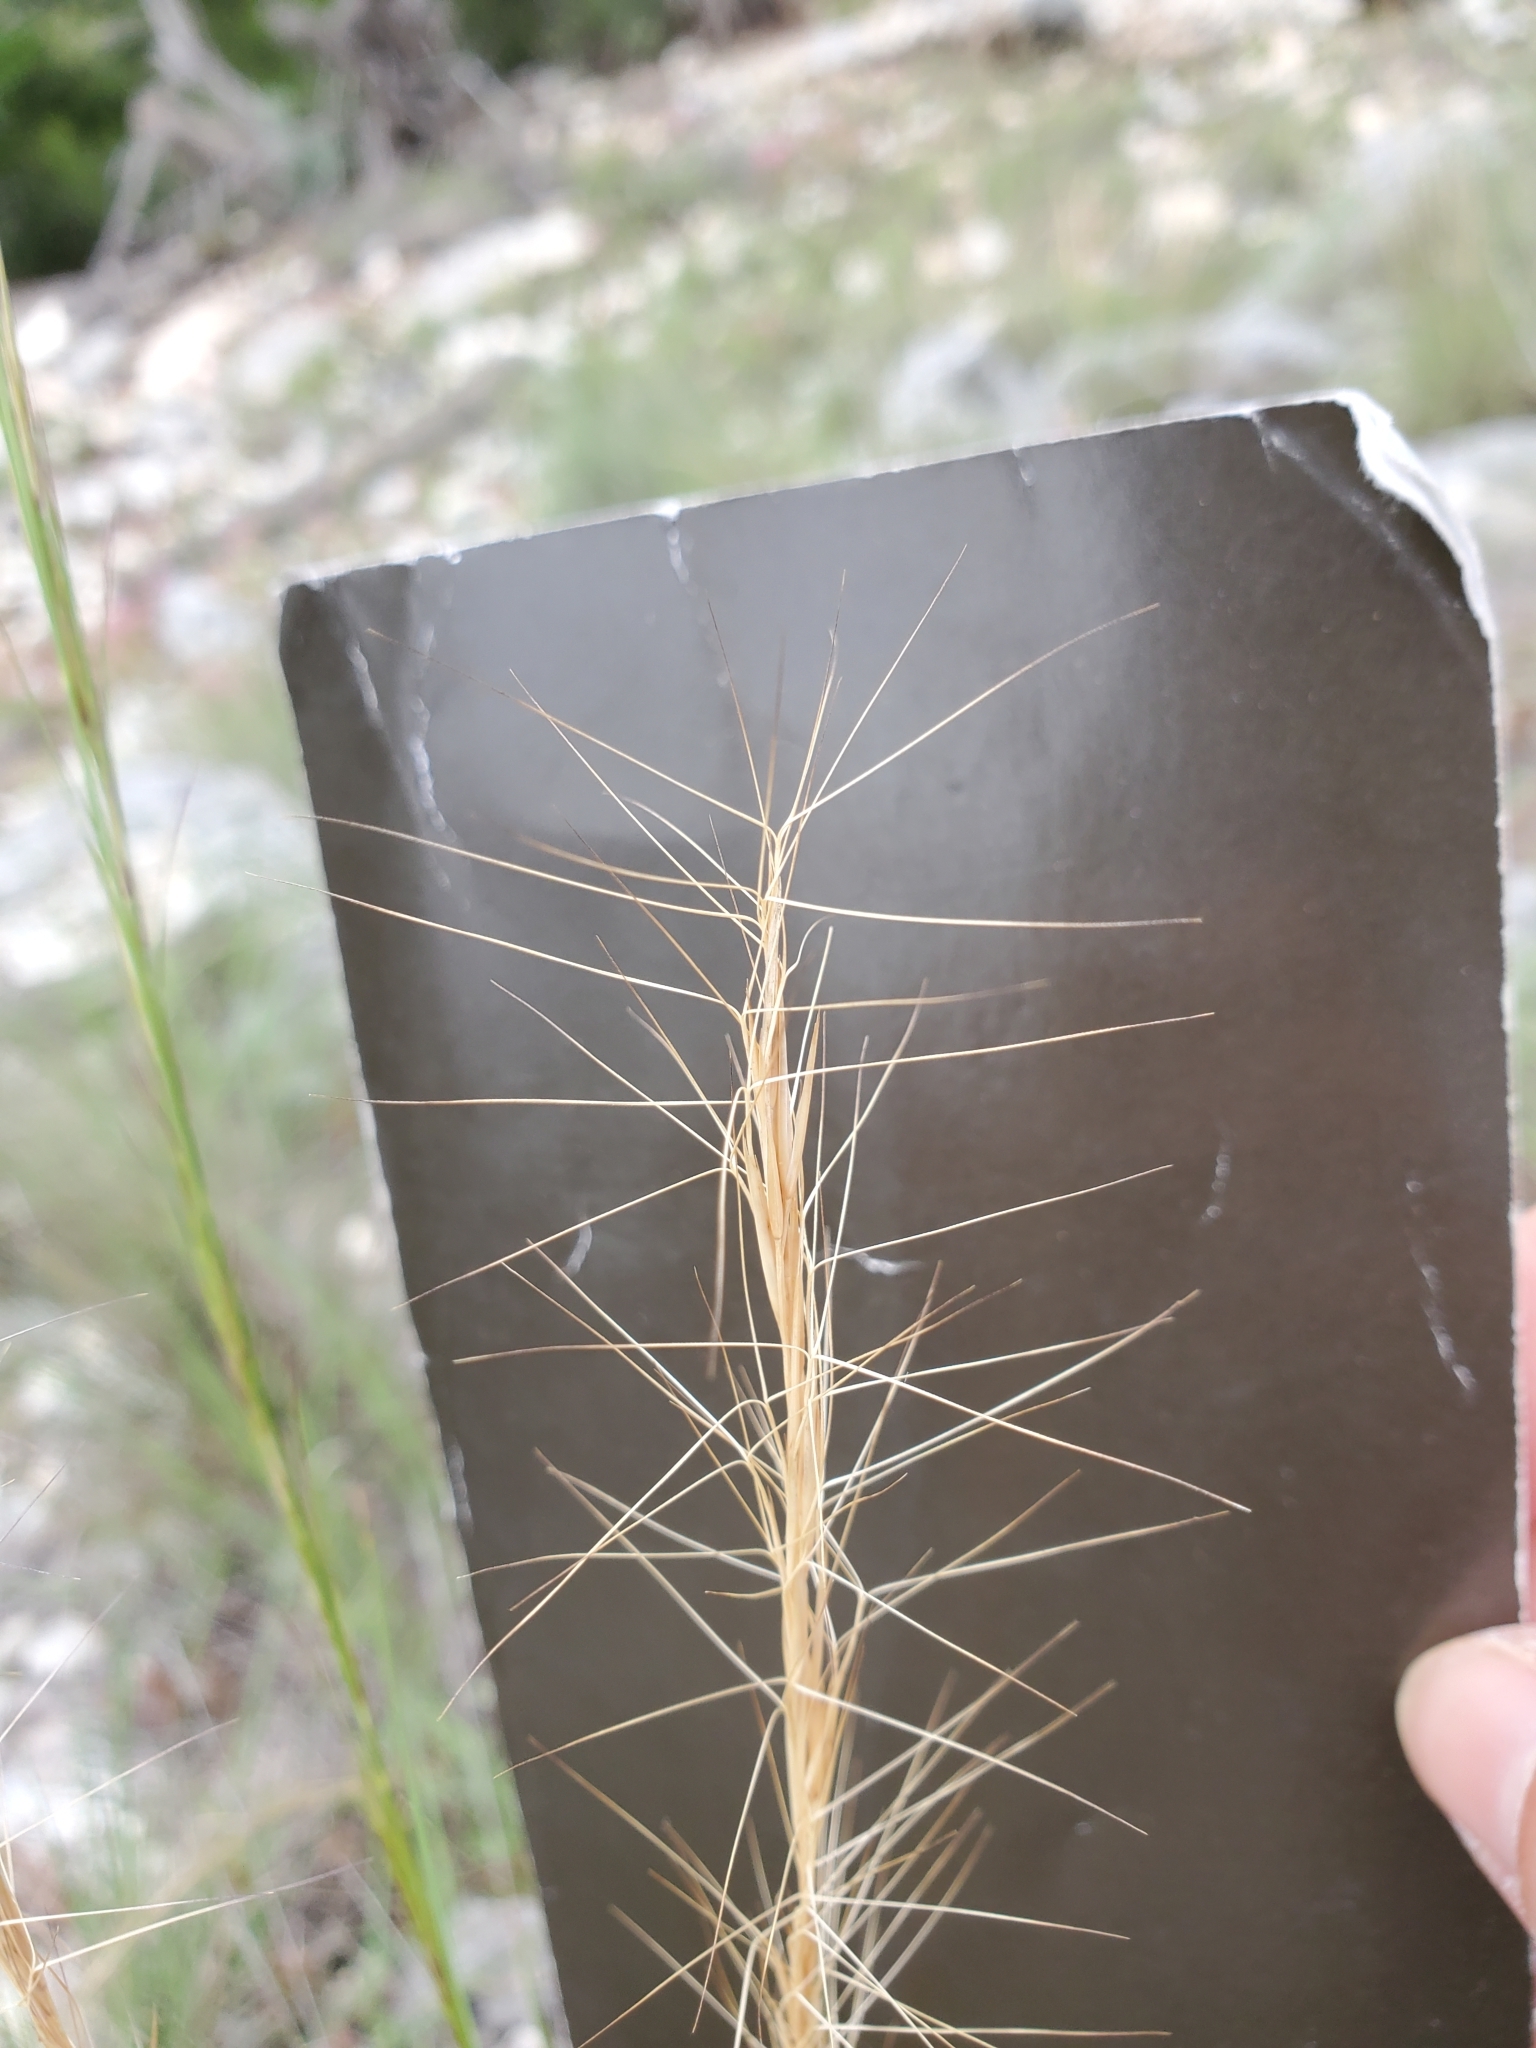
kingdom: Plantae
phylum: Tracheophyta
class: Liliopsida
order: Poales
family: Poaceae
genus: Aristida
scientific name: Aristida purpurea
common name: Purple threeawn
